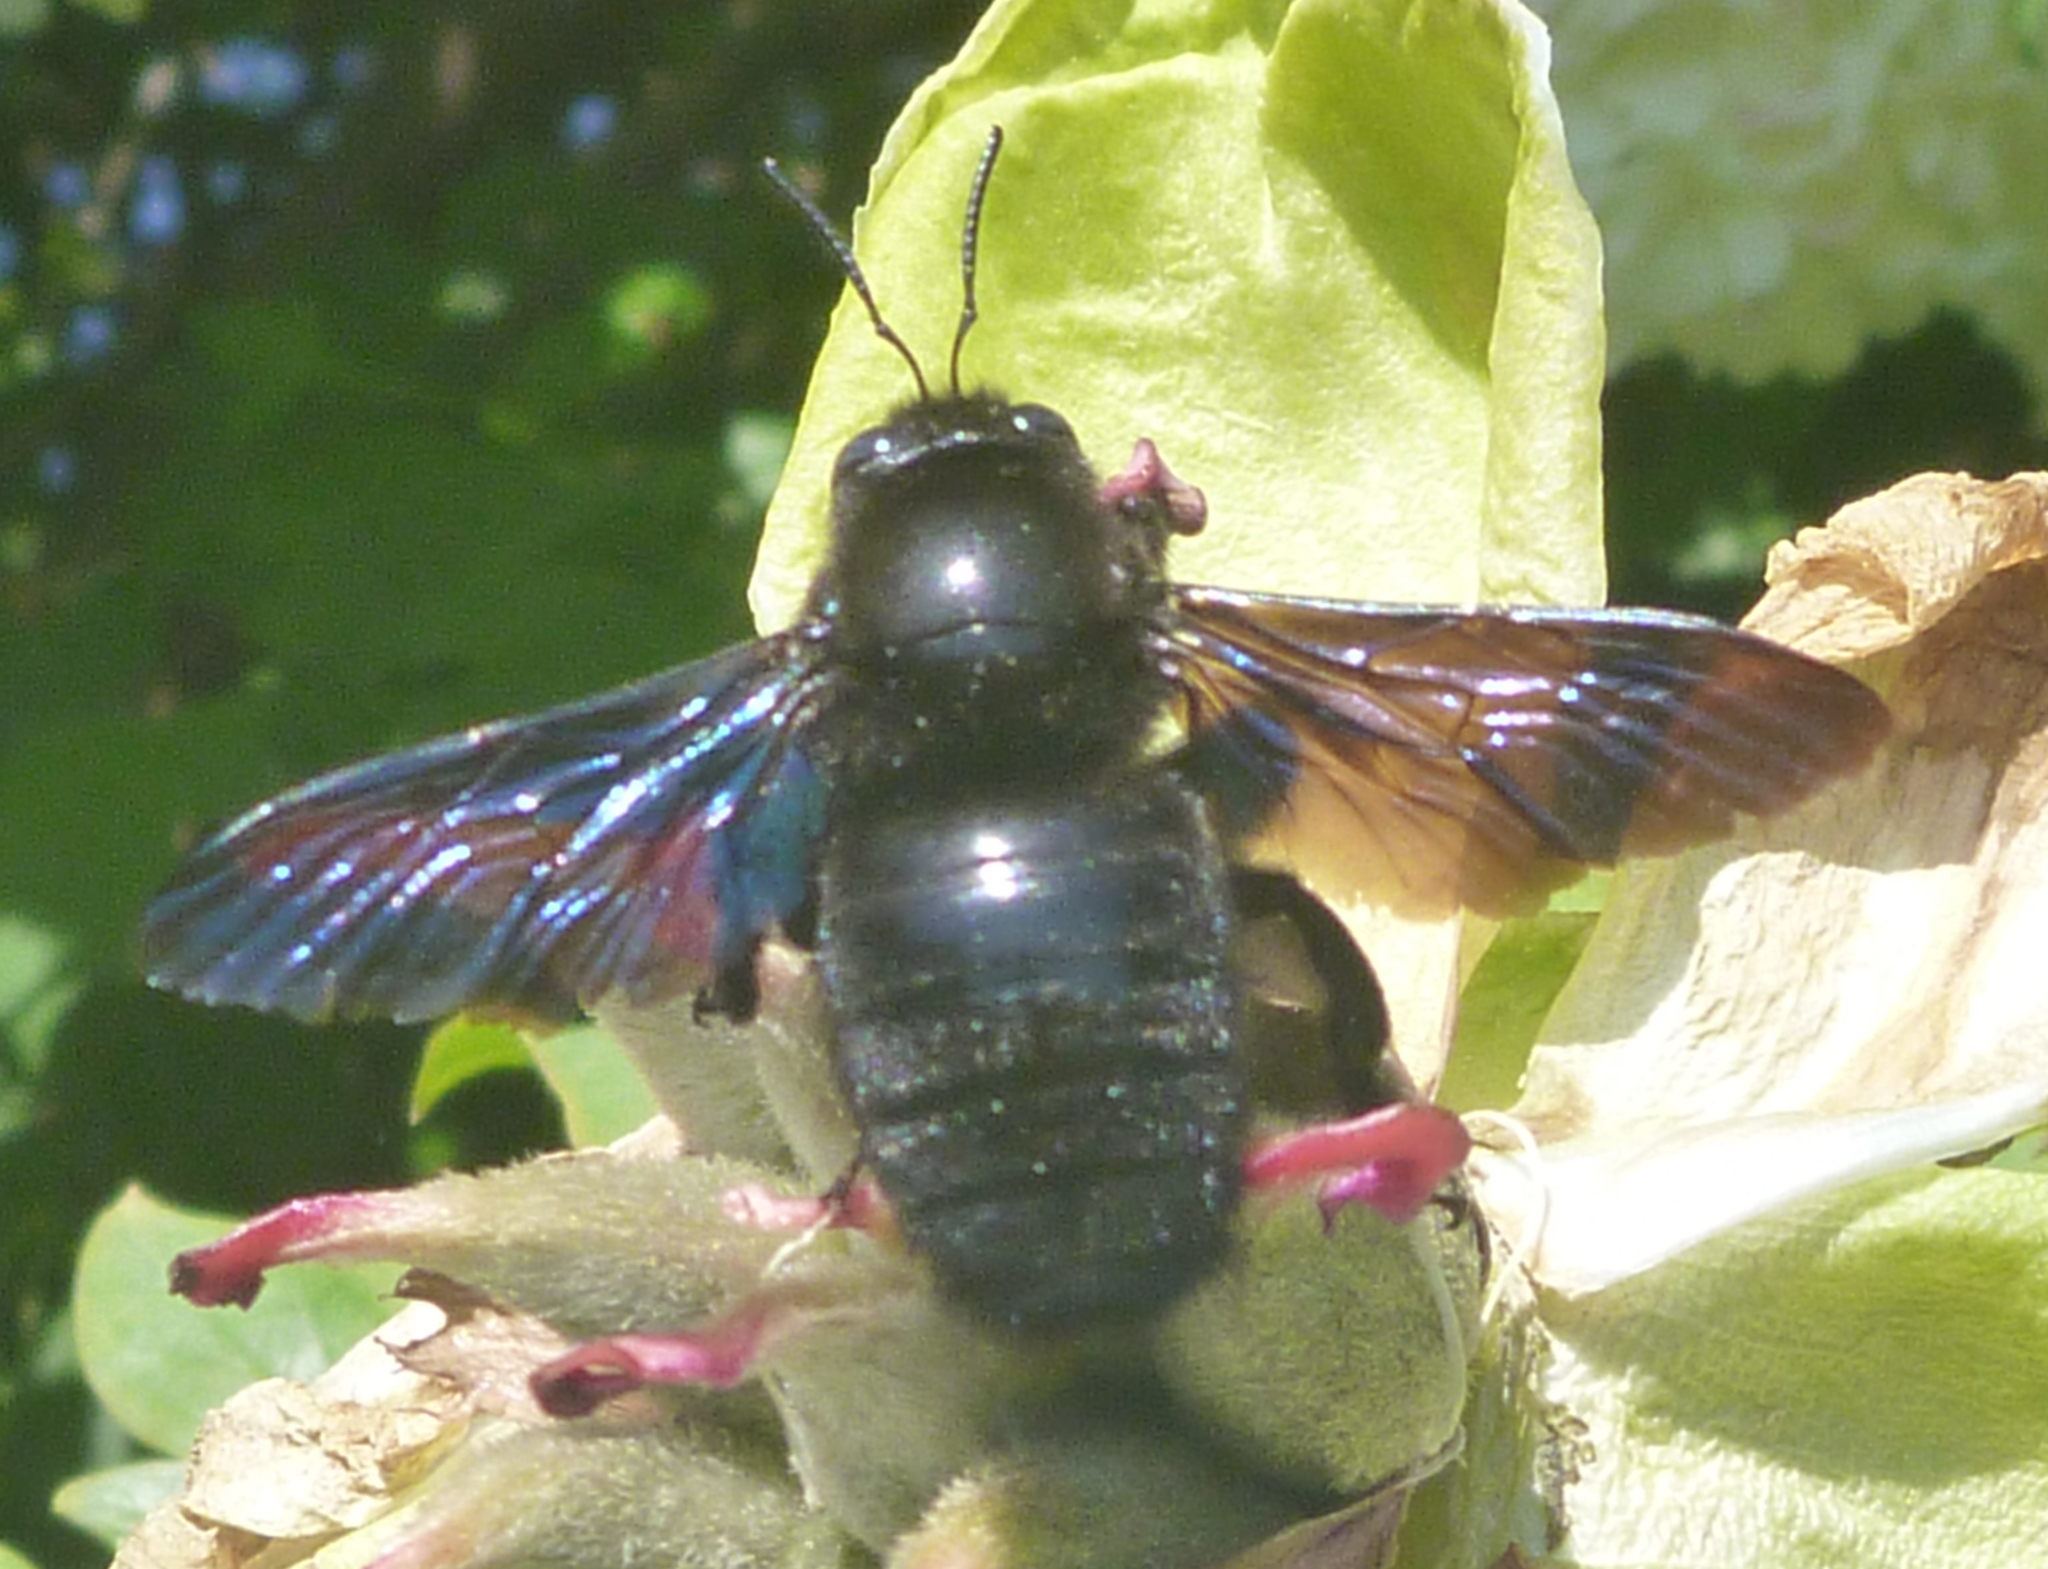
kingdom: Animalia
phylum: Arthropoda
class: Insecta
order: Hymenoptera
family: Apidae
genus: Xylocopa
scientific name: Xylocopa valga
